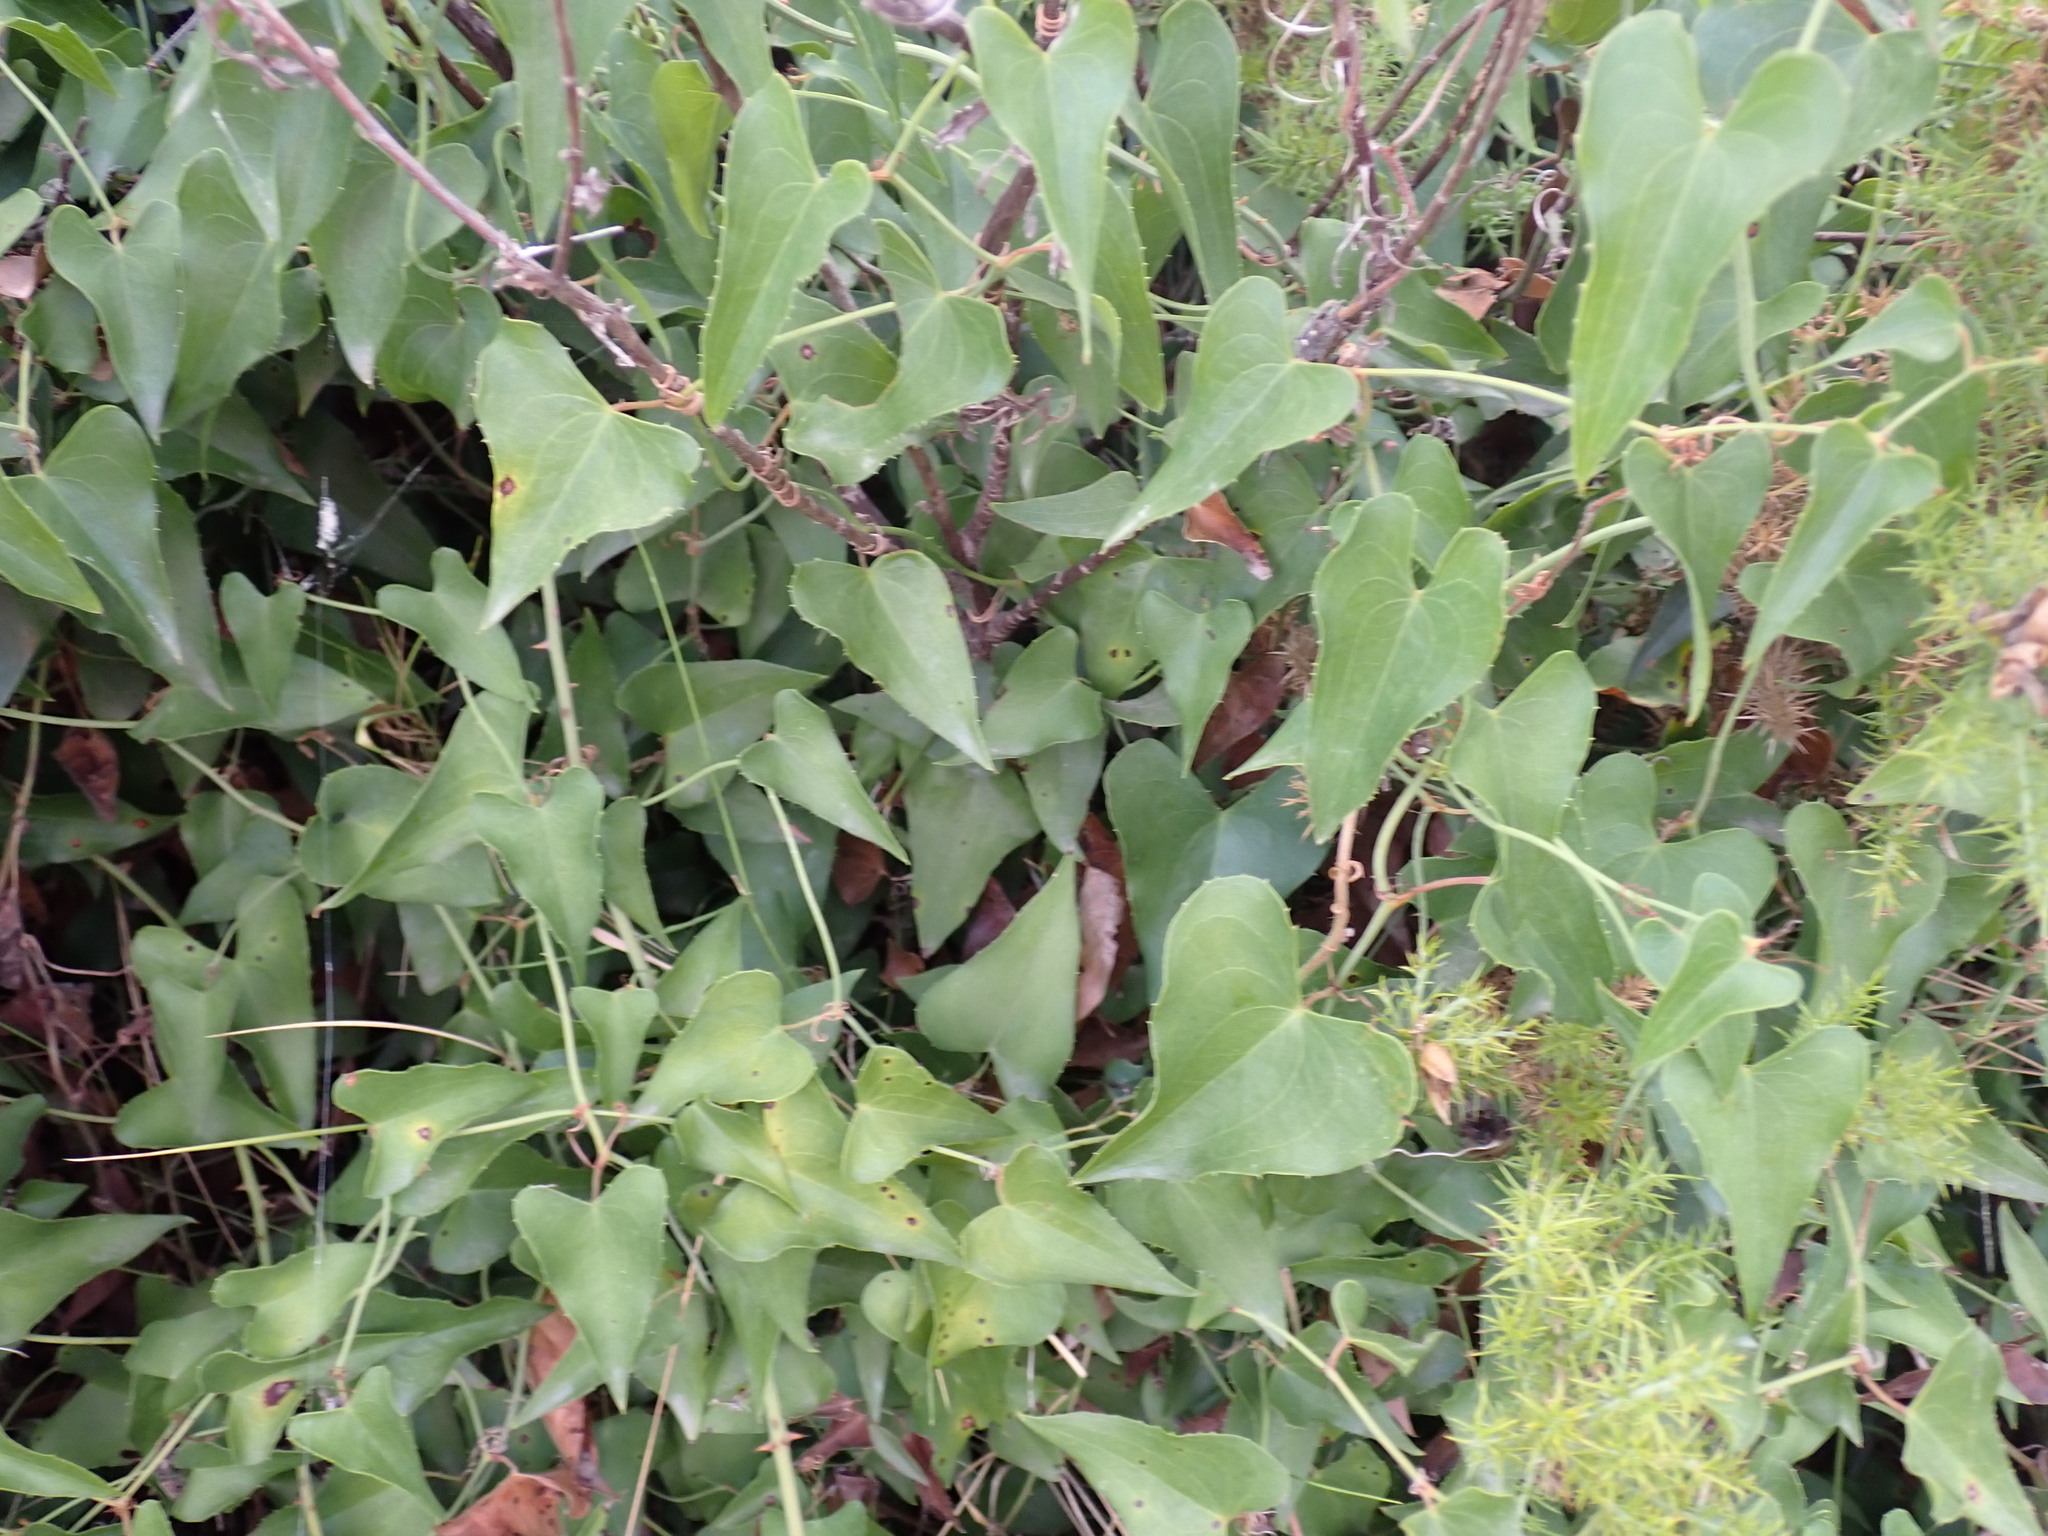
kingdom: Plantae
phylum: Tracheophyta
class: Liliopsida
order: Liliales
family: Smilacaceae
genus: Smilax
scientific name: Smilax aspera
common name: Common smilax
